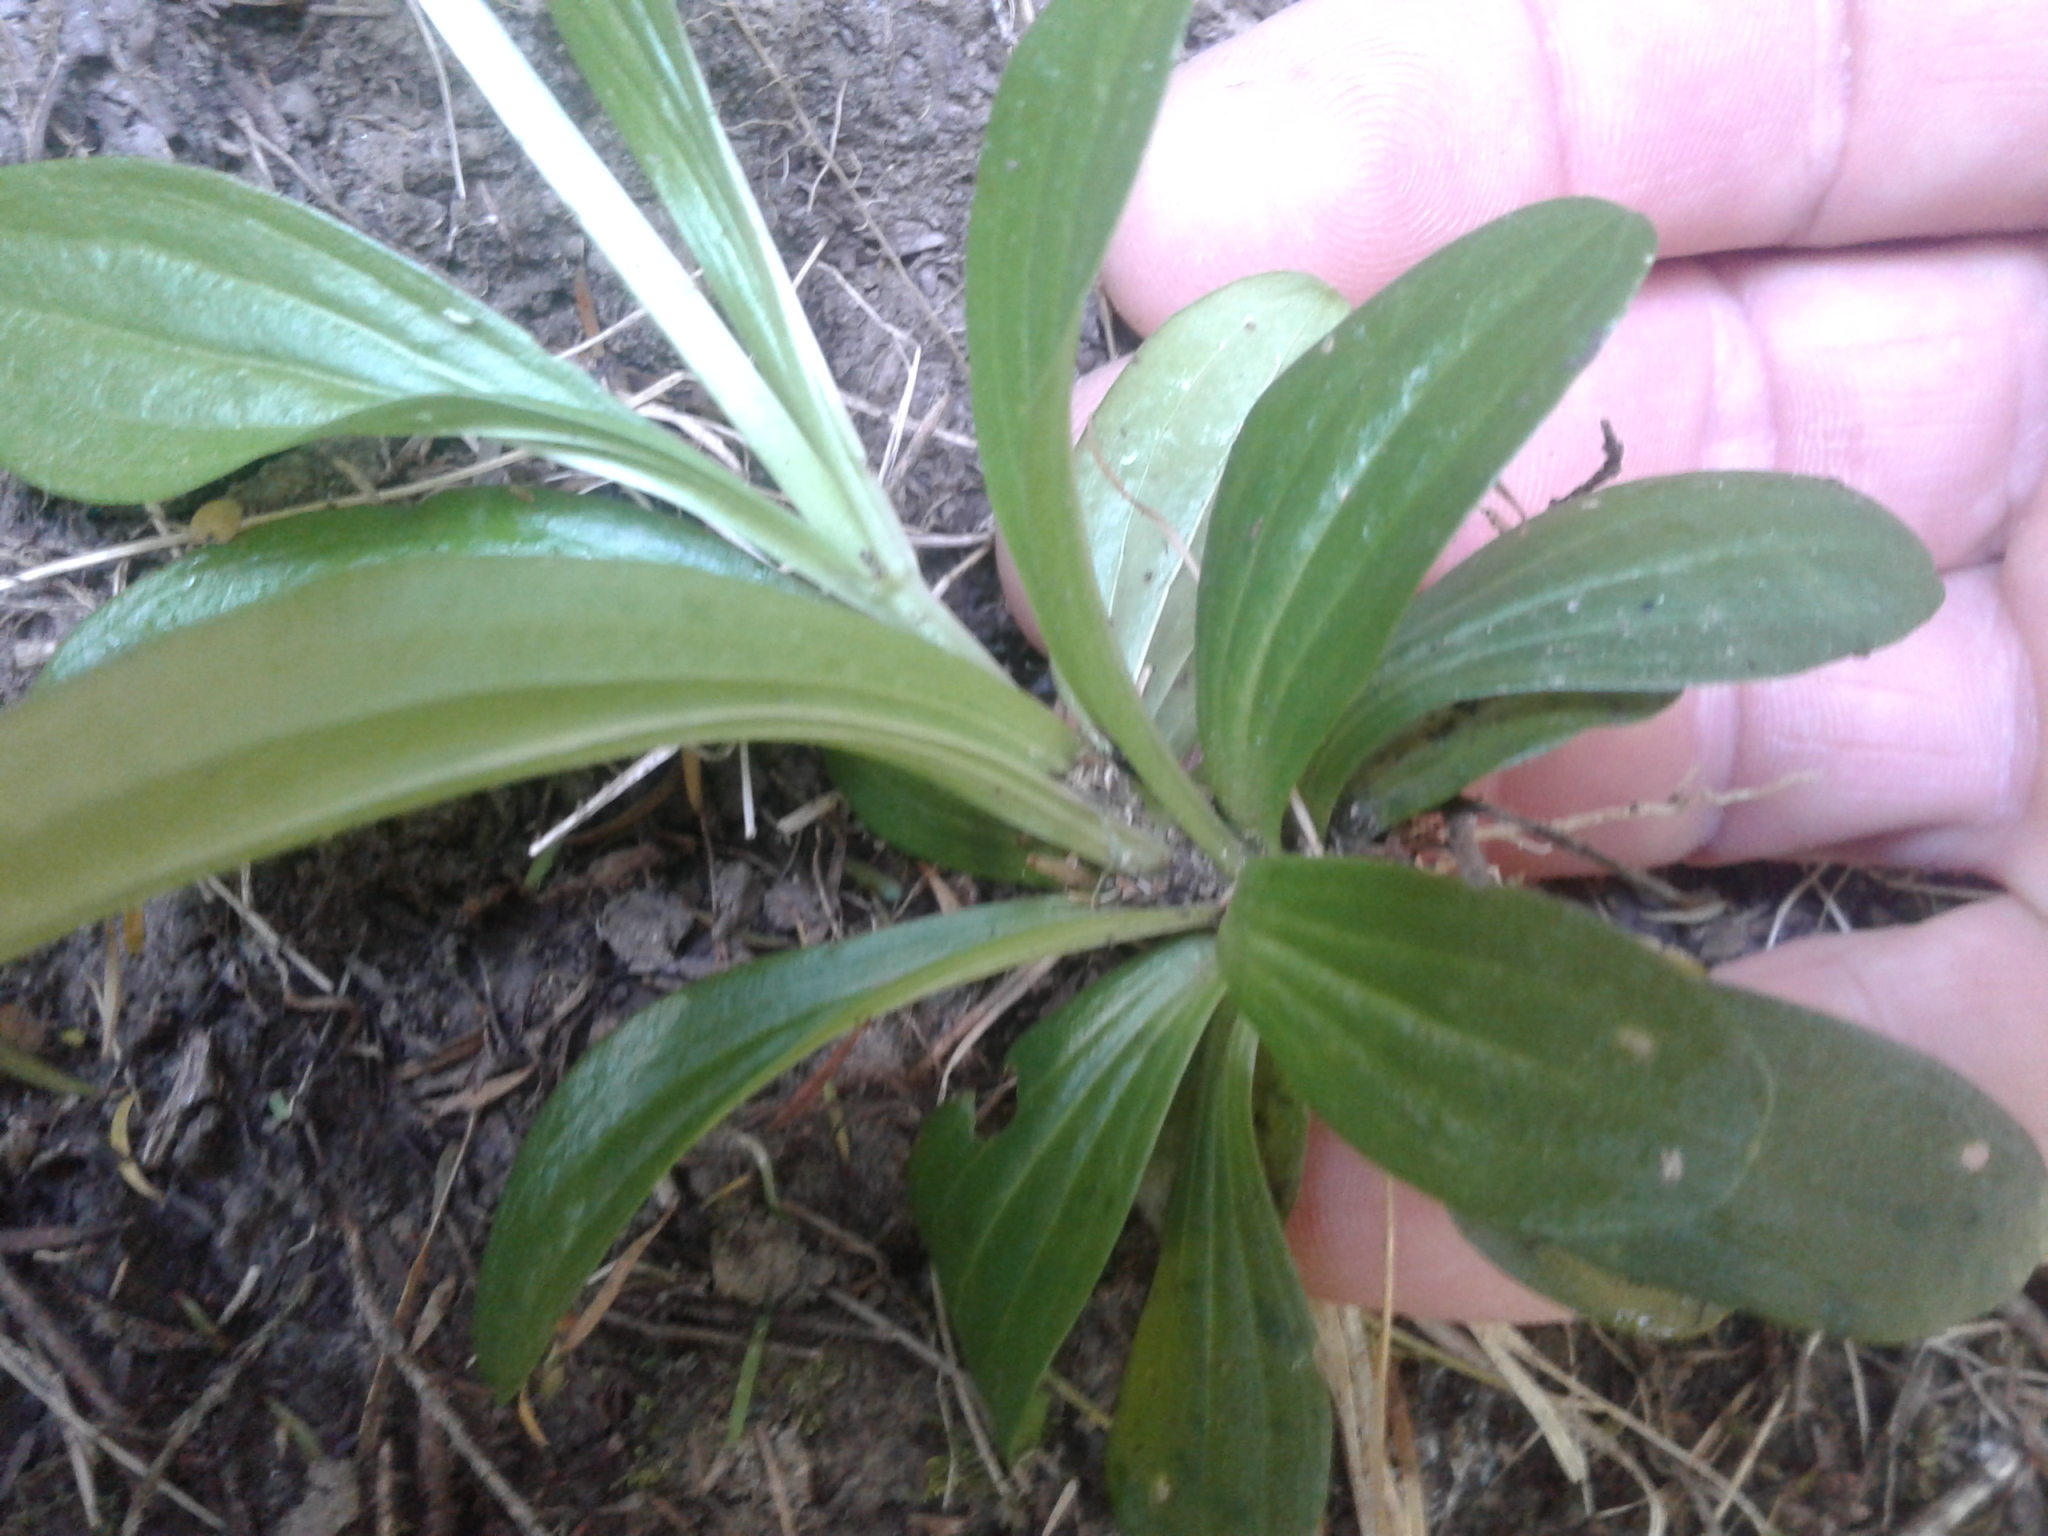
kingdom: Plantae
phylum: Tracheophyta
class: Magnoliopsida
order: Gentianales
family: Gentianaceae
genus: Centaurium
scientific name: Centaurium erythraea
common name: Common centaury
